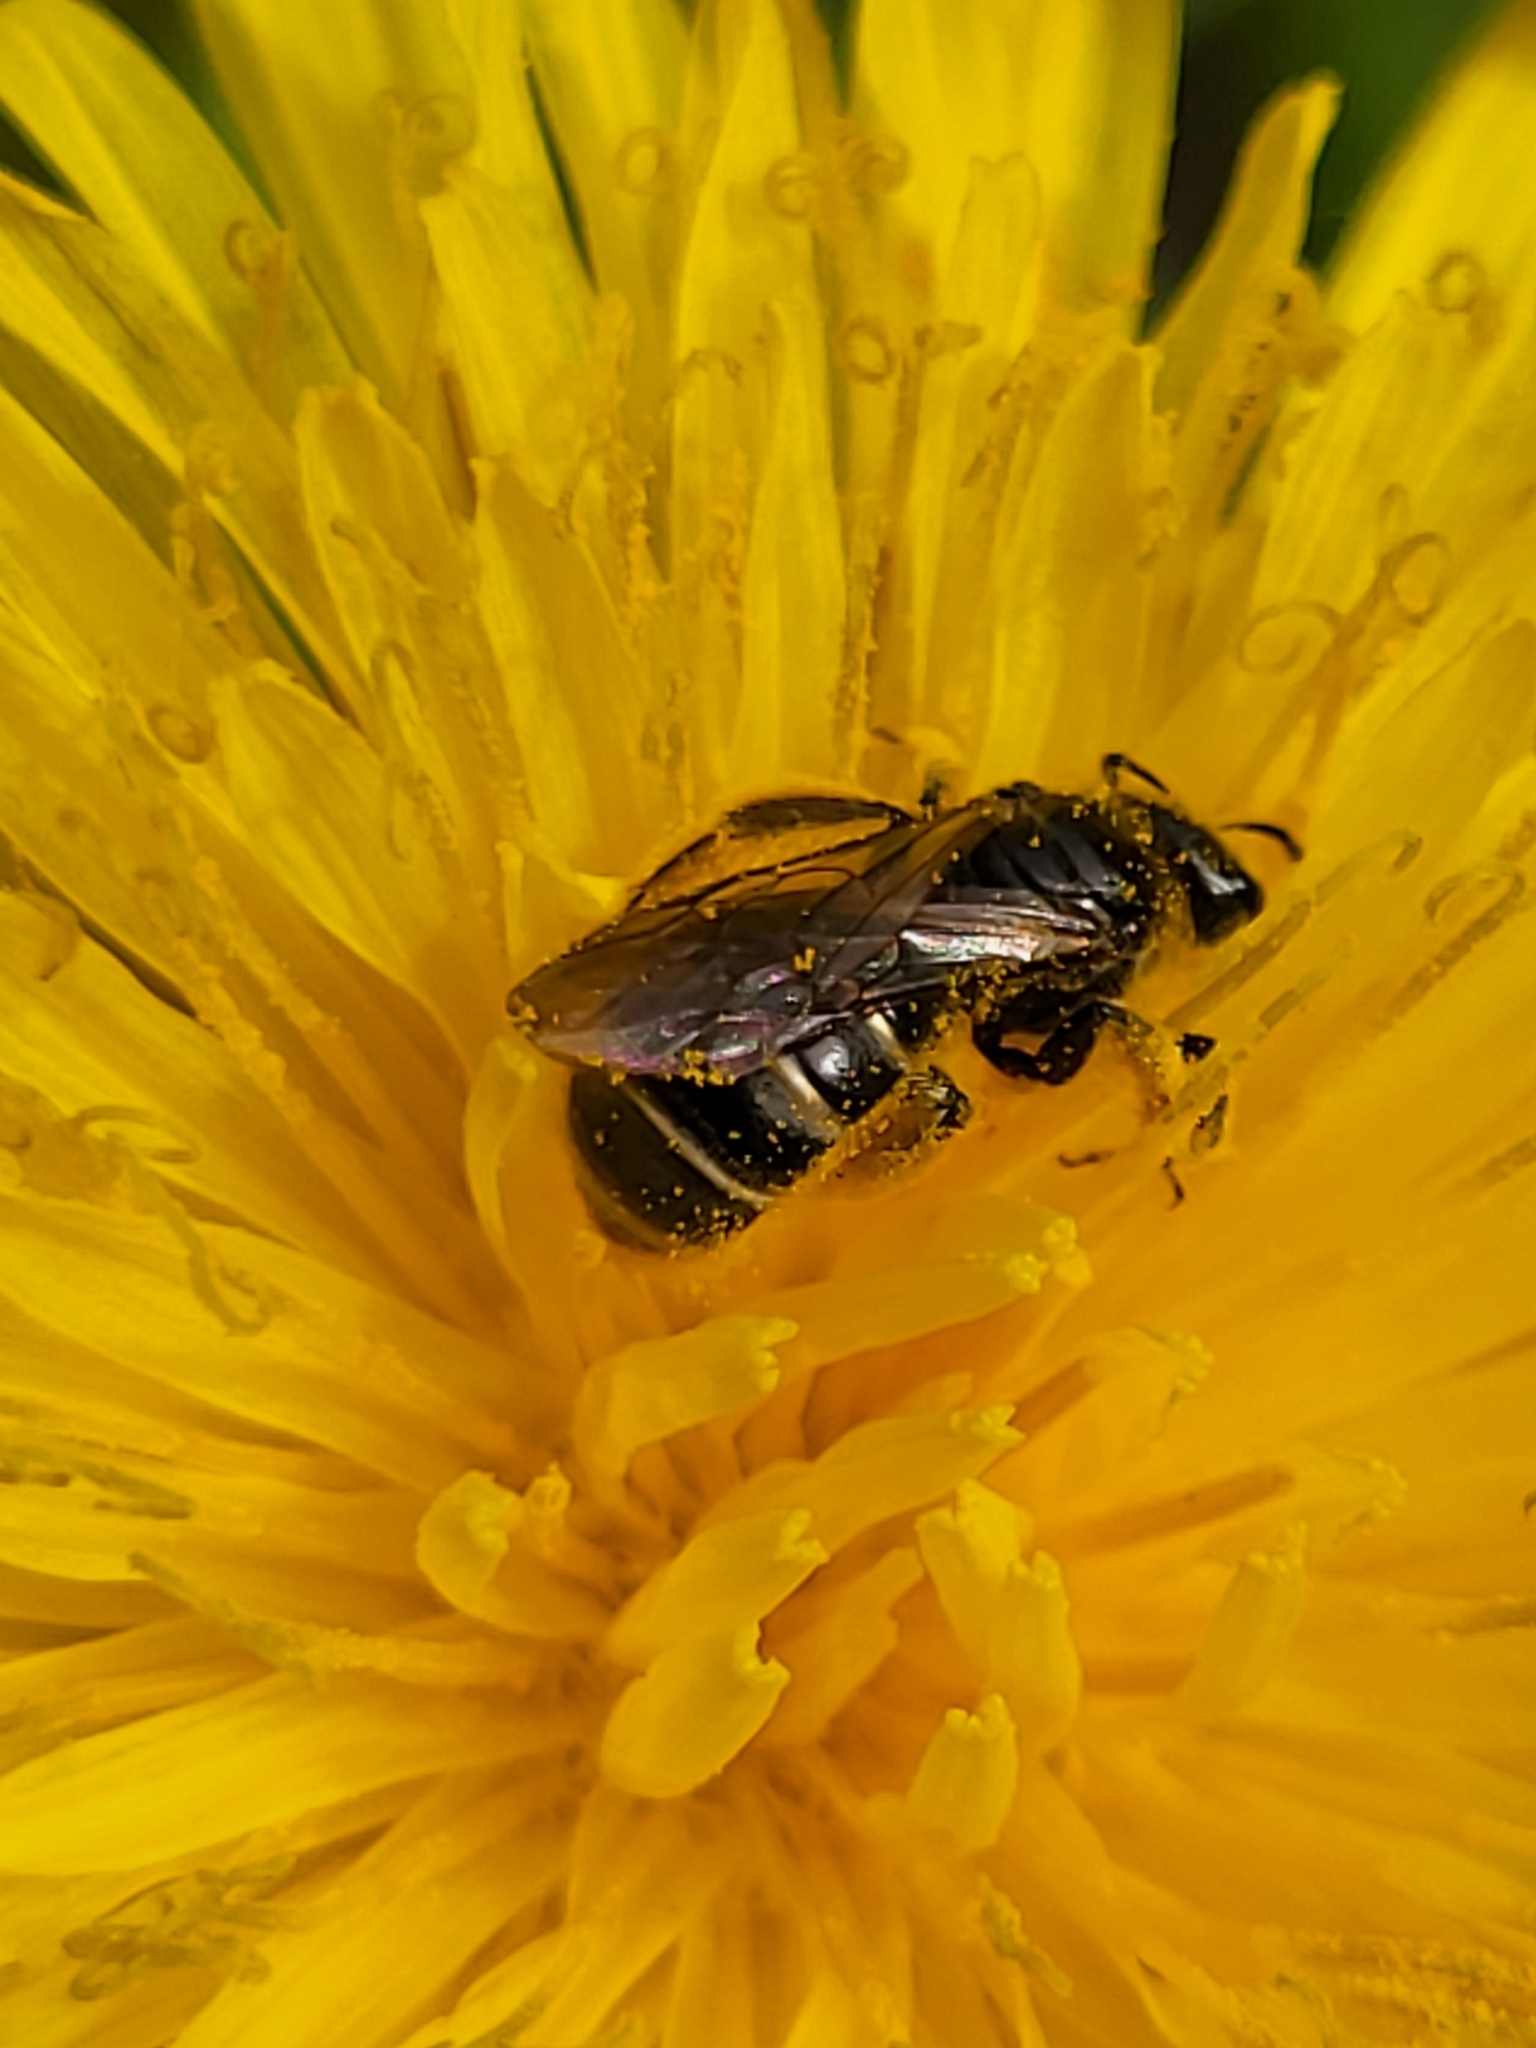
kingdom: Animalia
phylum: Arthropoda
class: Insecta
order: Hymenoptera
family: Halictidae
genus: Lasioglossum
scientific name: Lasioglossum marginatum
